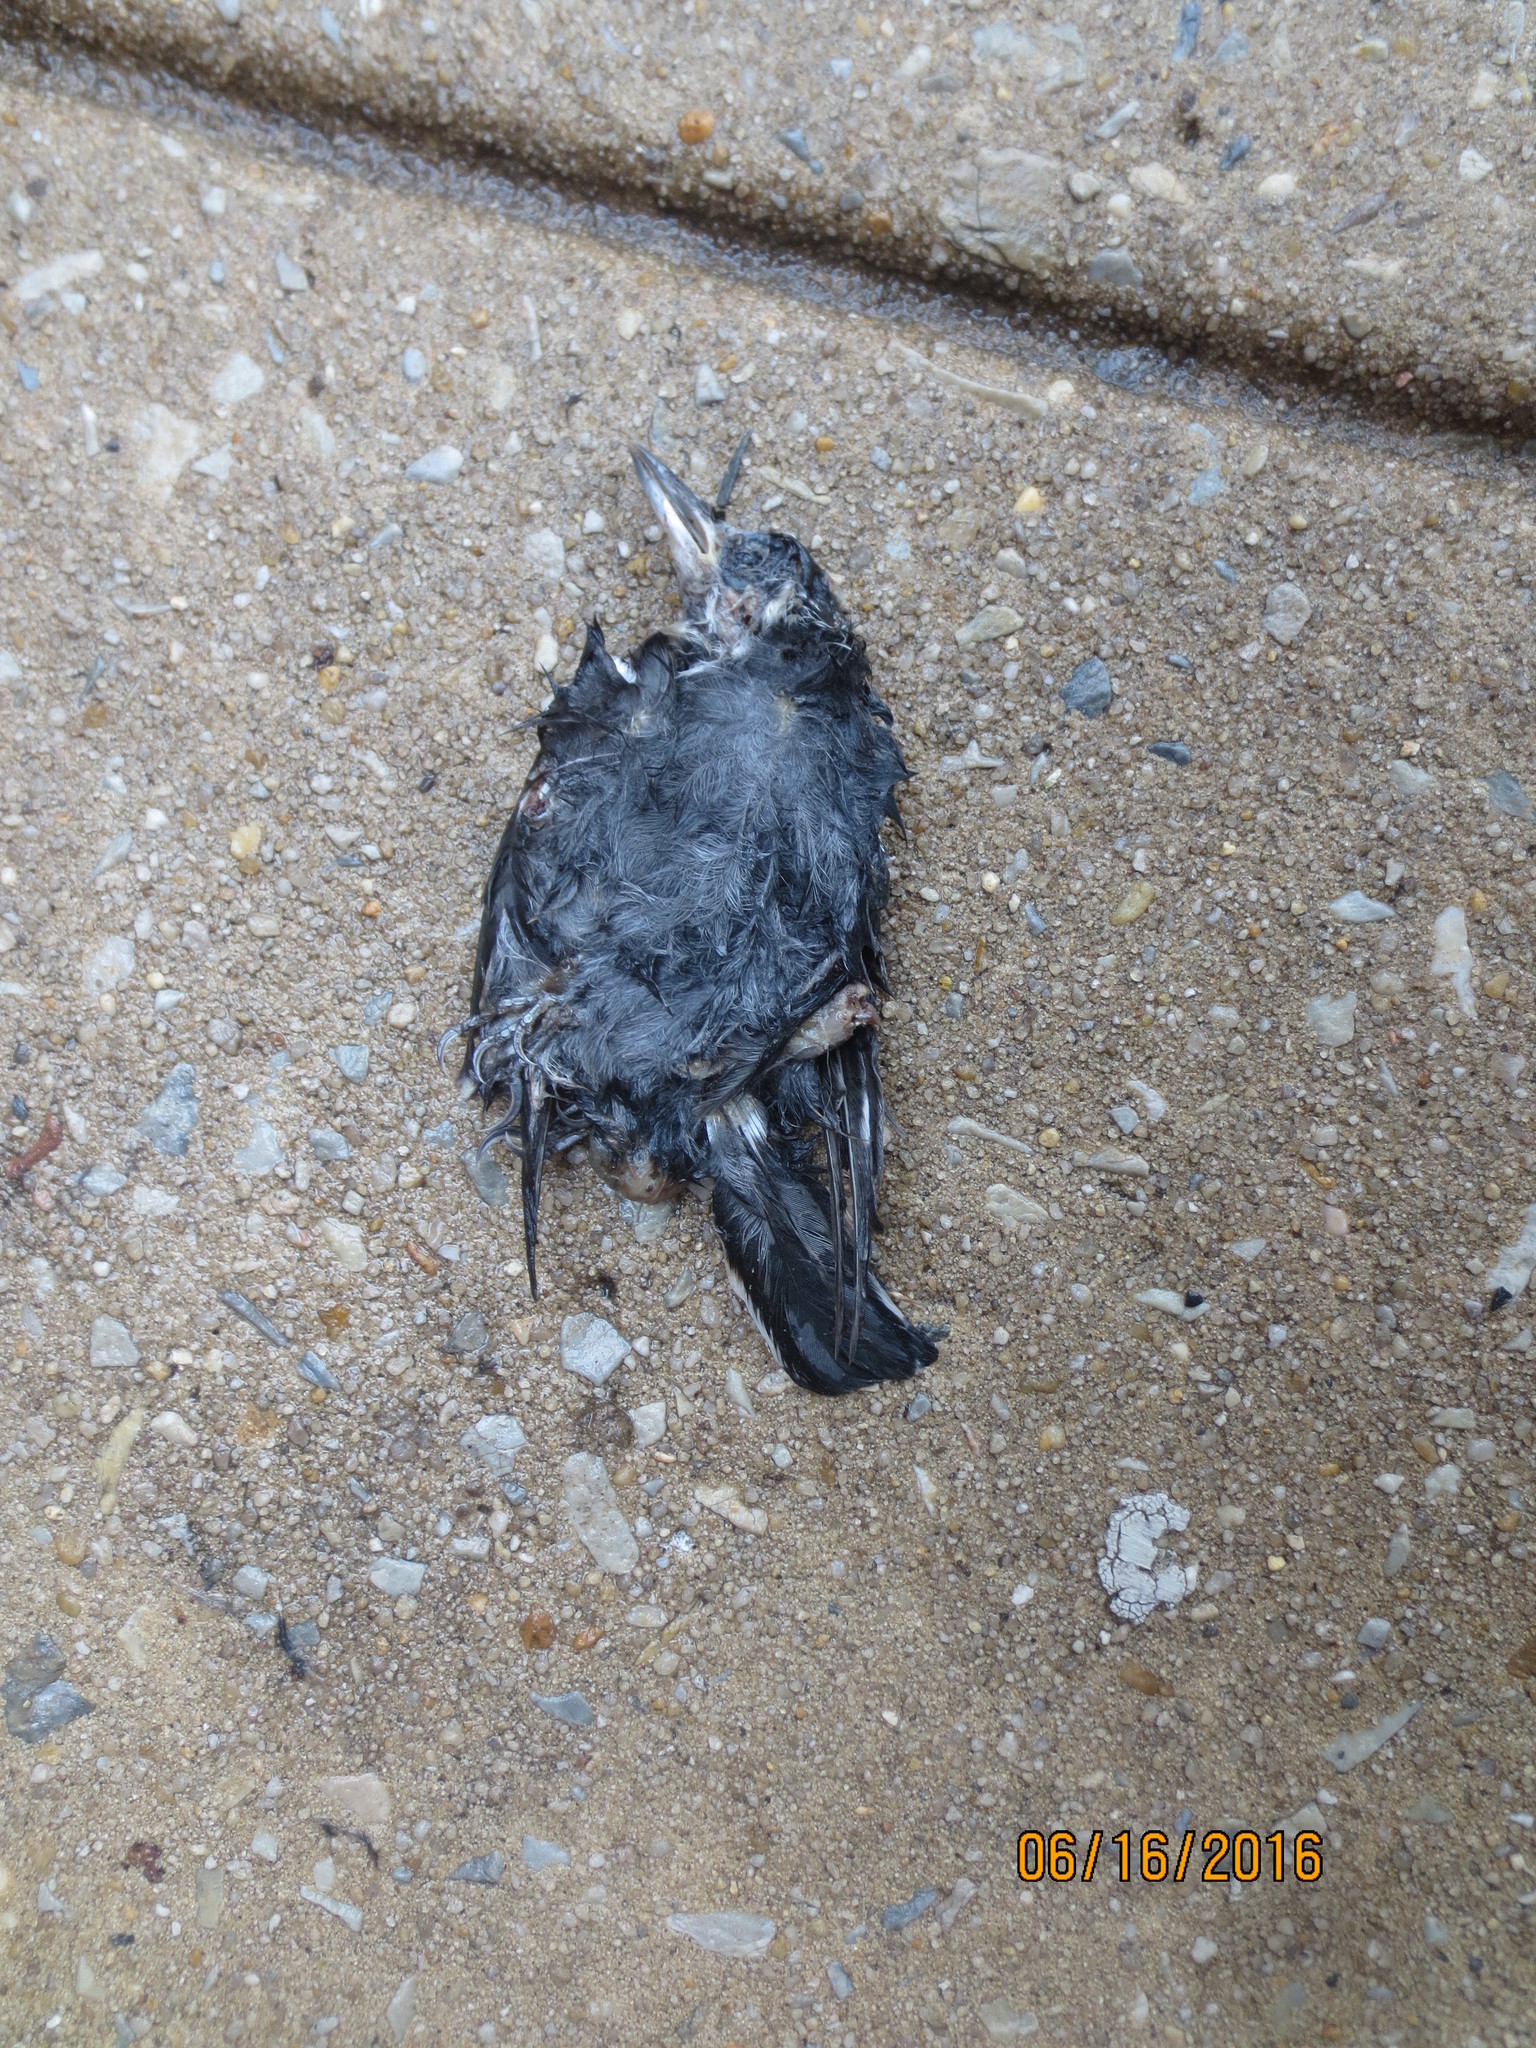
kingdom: Animalia
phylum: Chordata
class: Aves
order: Passeriformes
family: Sittidae
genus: Sitta
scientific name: Sitta carolinensis
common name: White-breasted nuthatch
